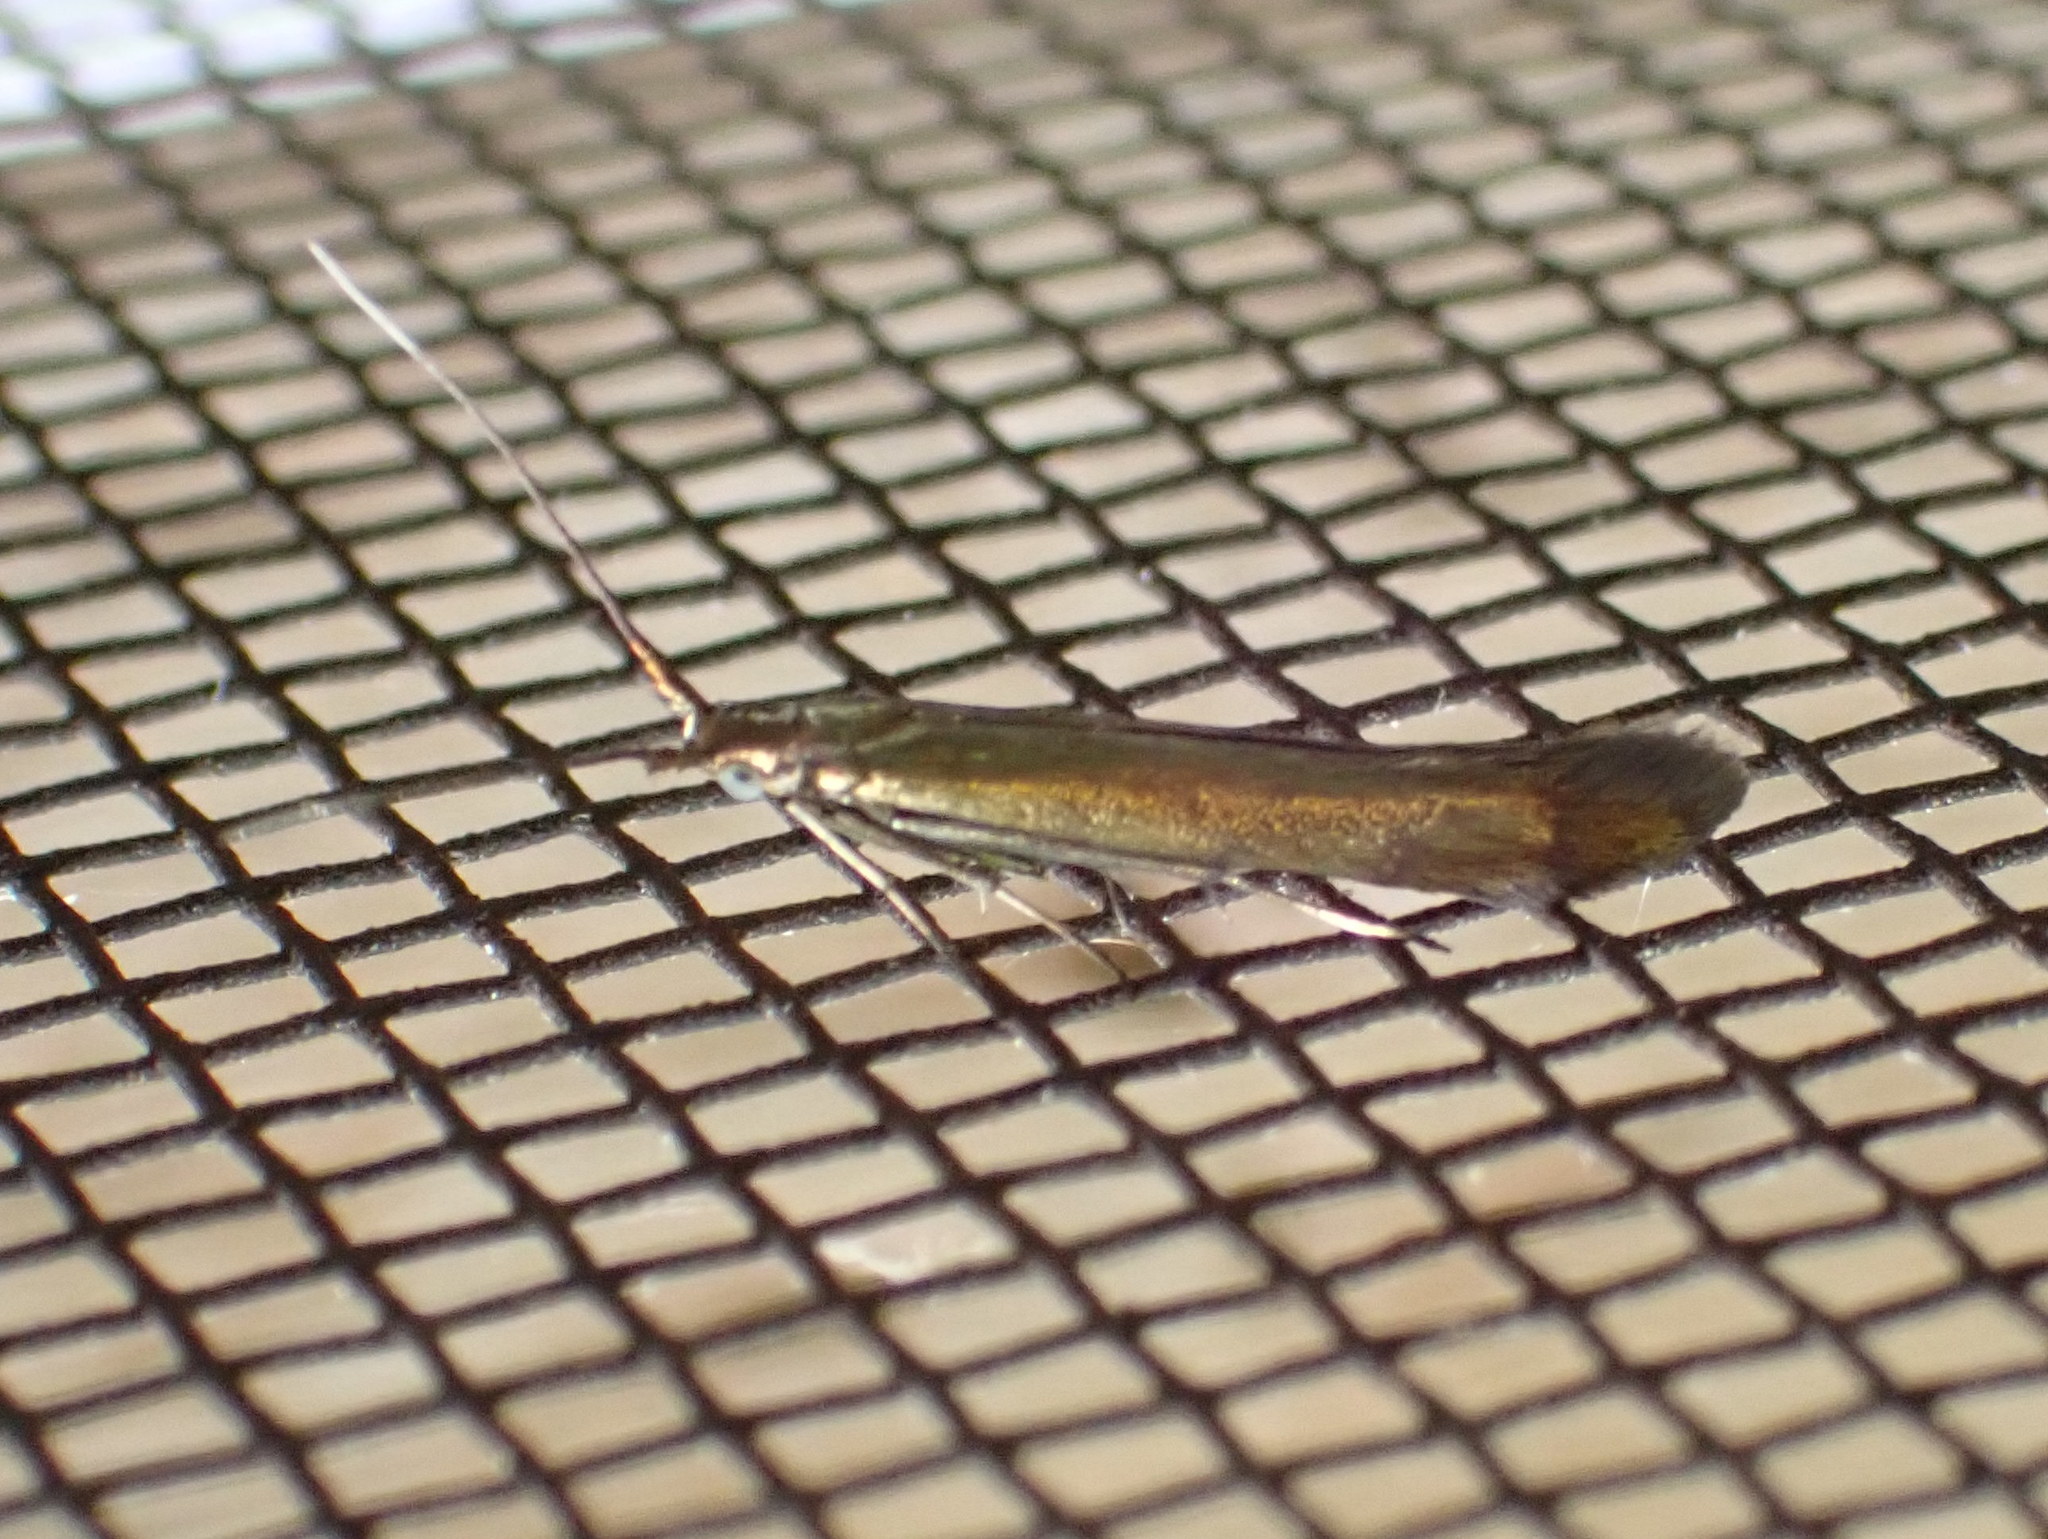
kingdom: Animalia
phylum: Arthropoda
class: Insecta
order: Lepidoptera
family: Coleophoridae
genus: Coleophora
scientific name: Coleophora trifolii
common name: Large clover case-bearer
